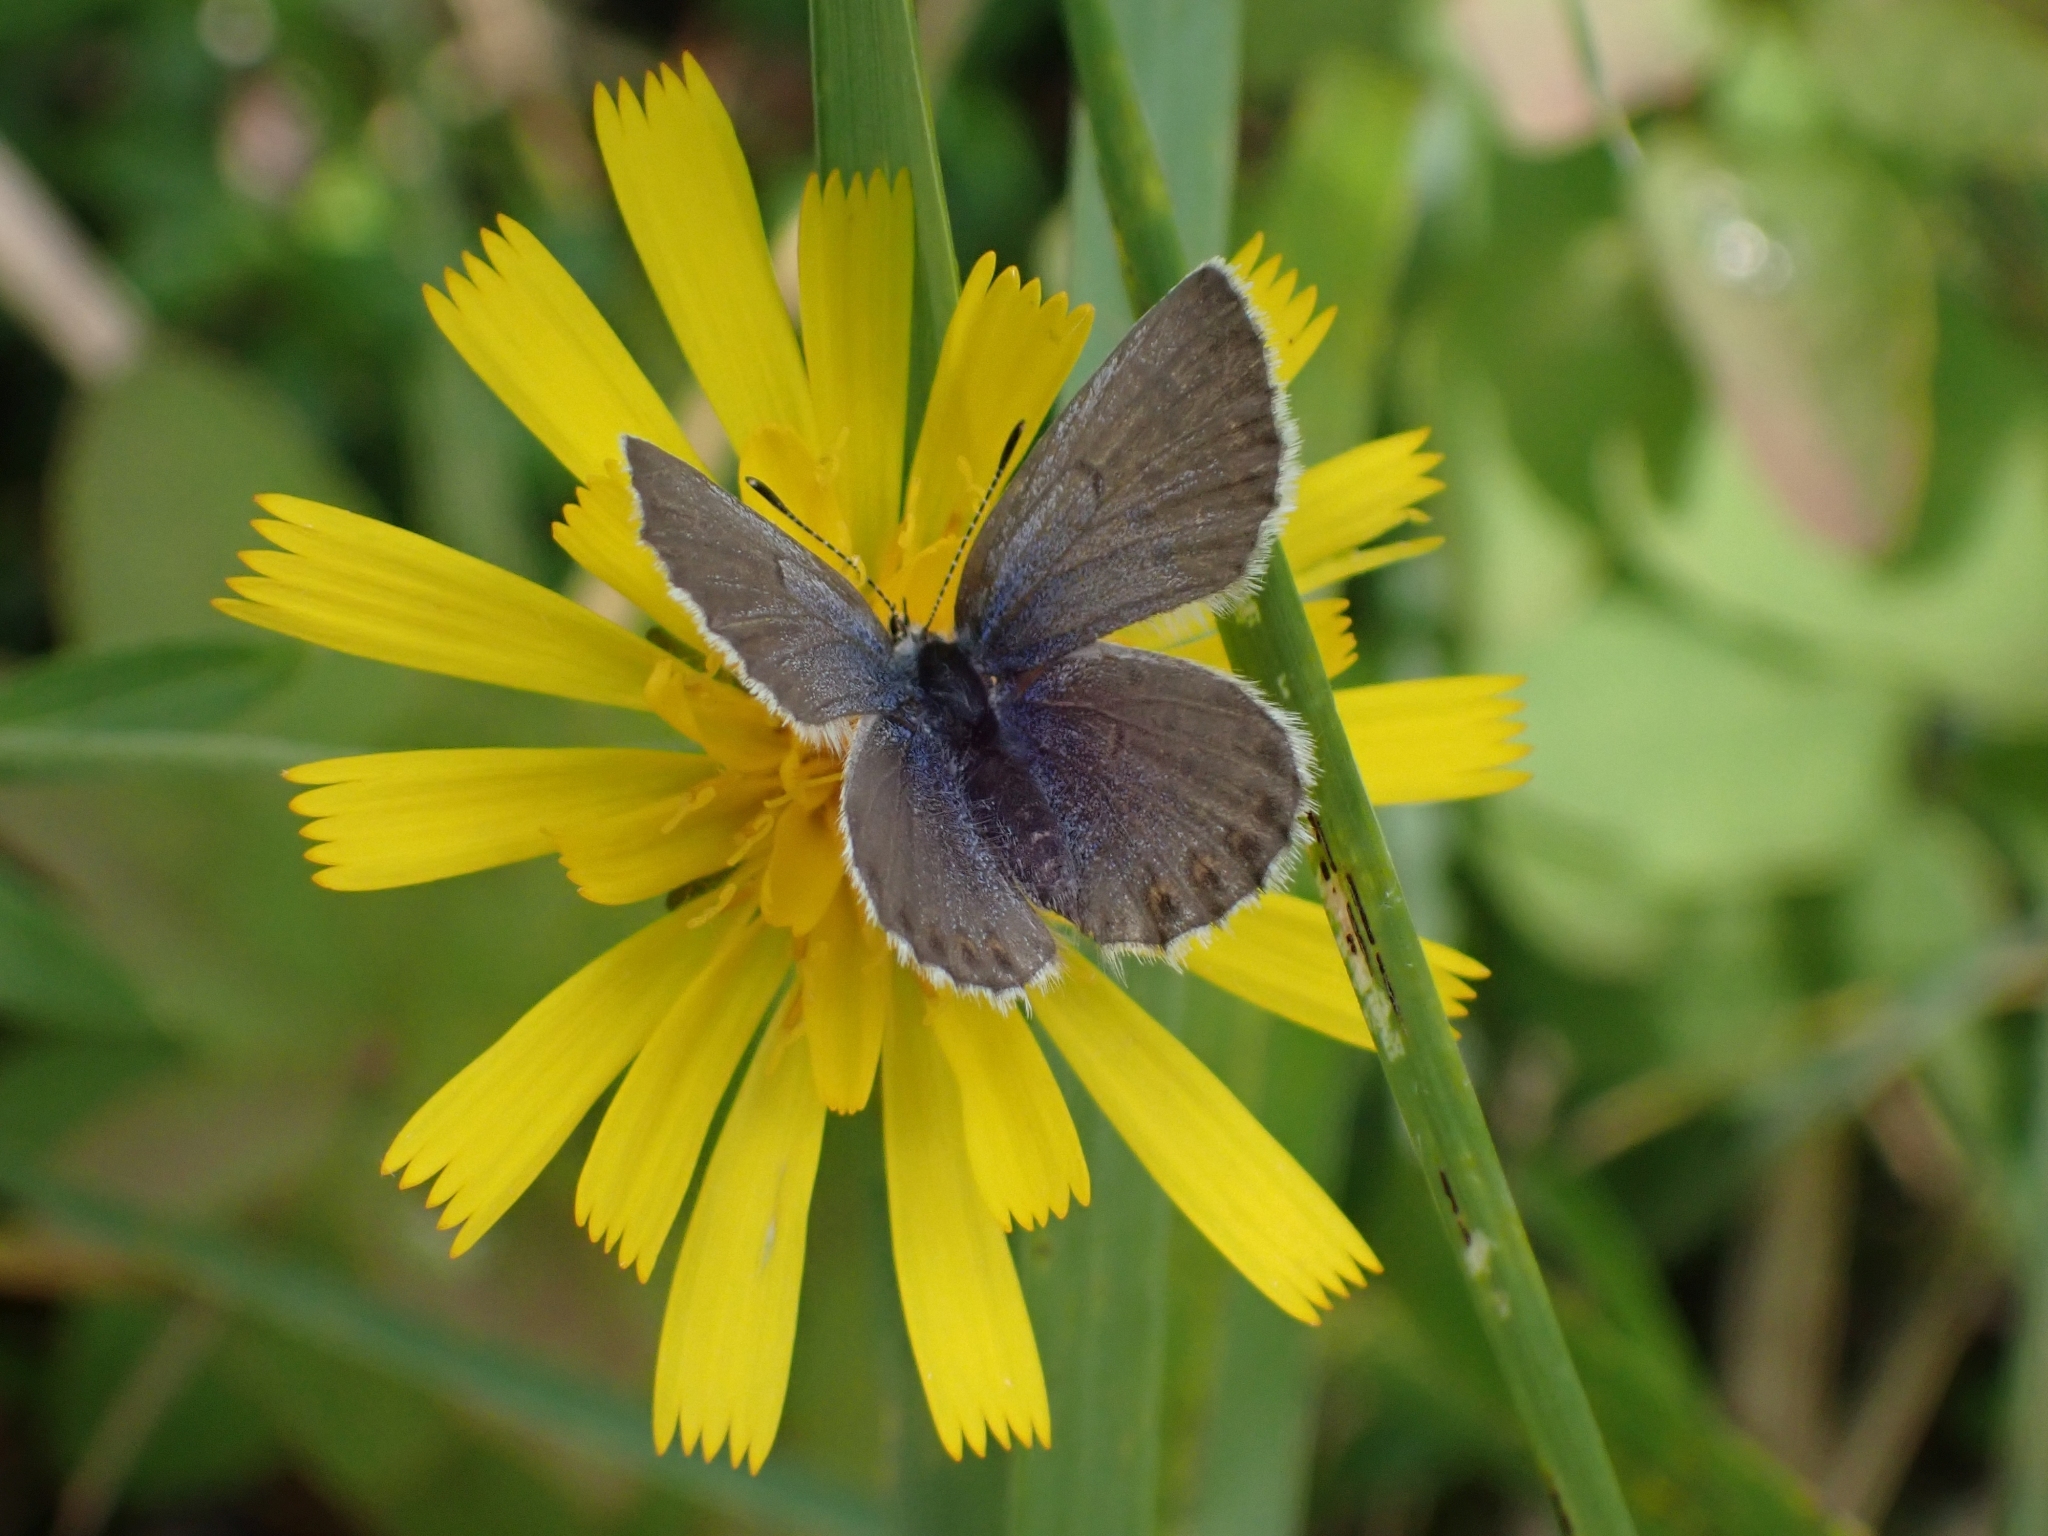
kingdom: Animalia
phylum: Arthropoda
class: Insecta
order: Lepidoptera
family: Lycaenidae
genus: Lycaeides
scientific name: Lycaeides idas
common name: Northern blue
